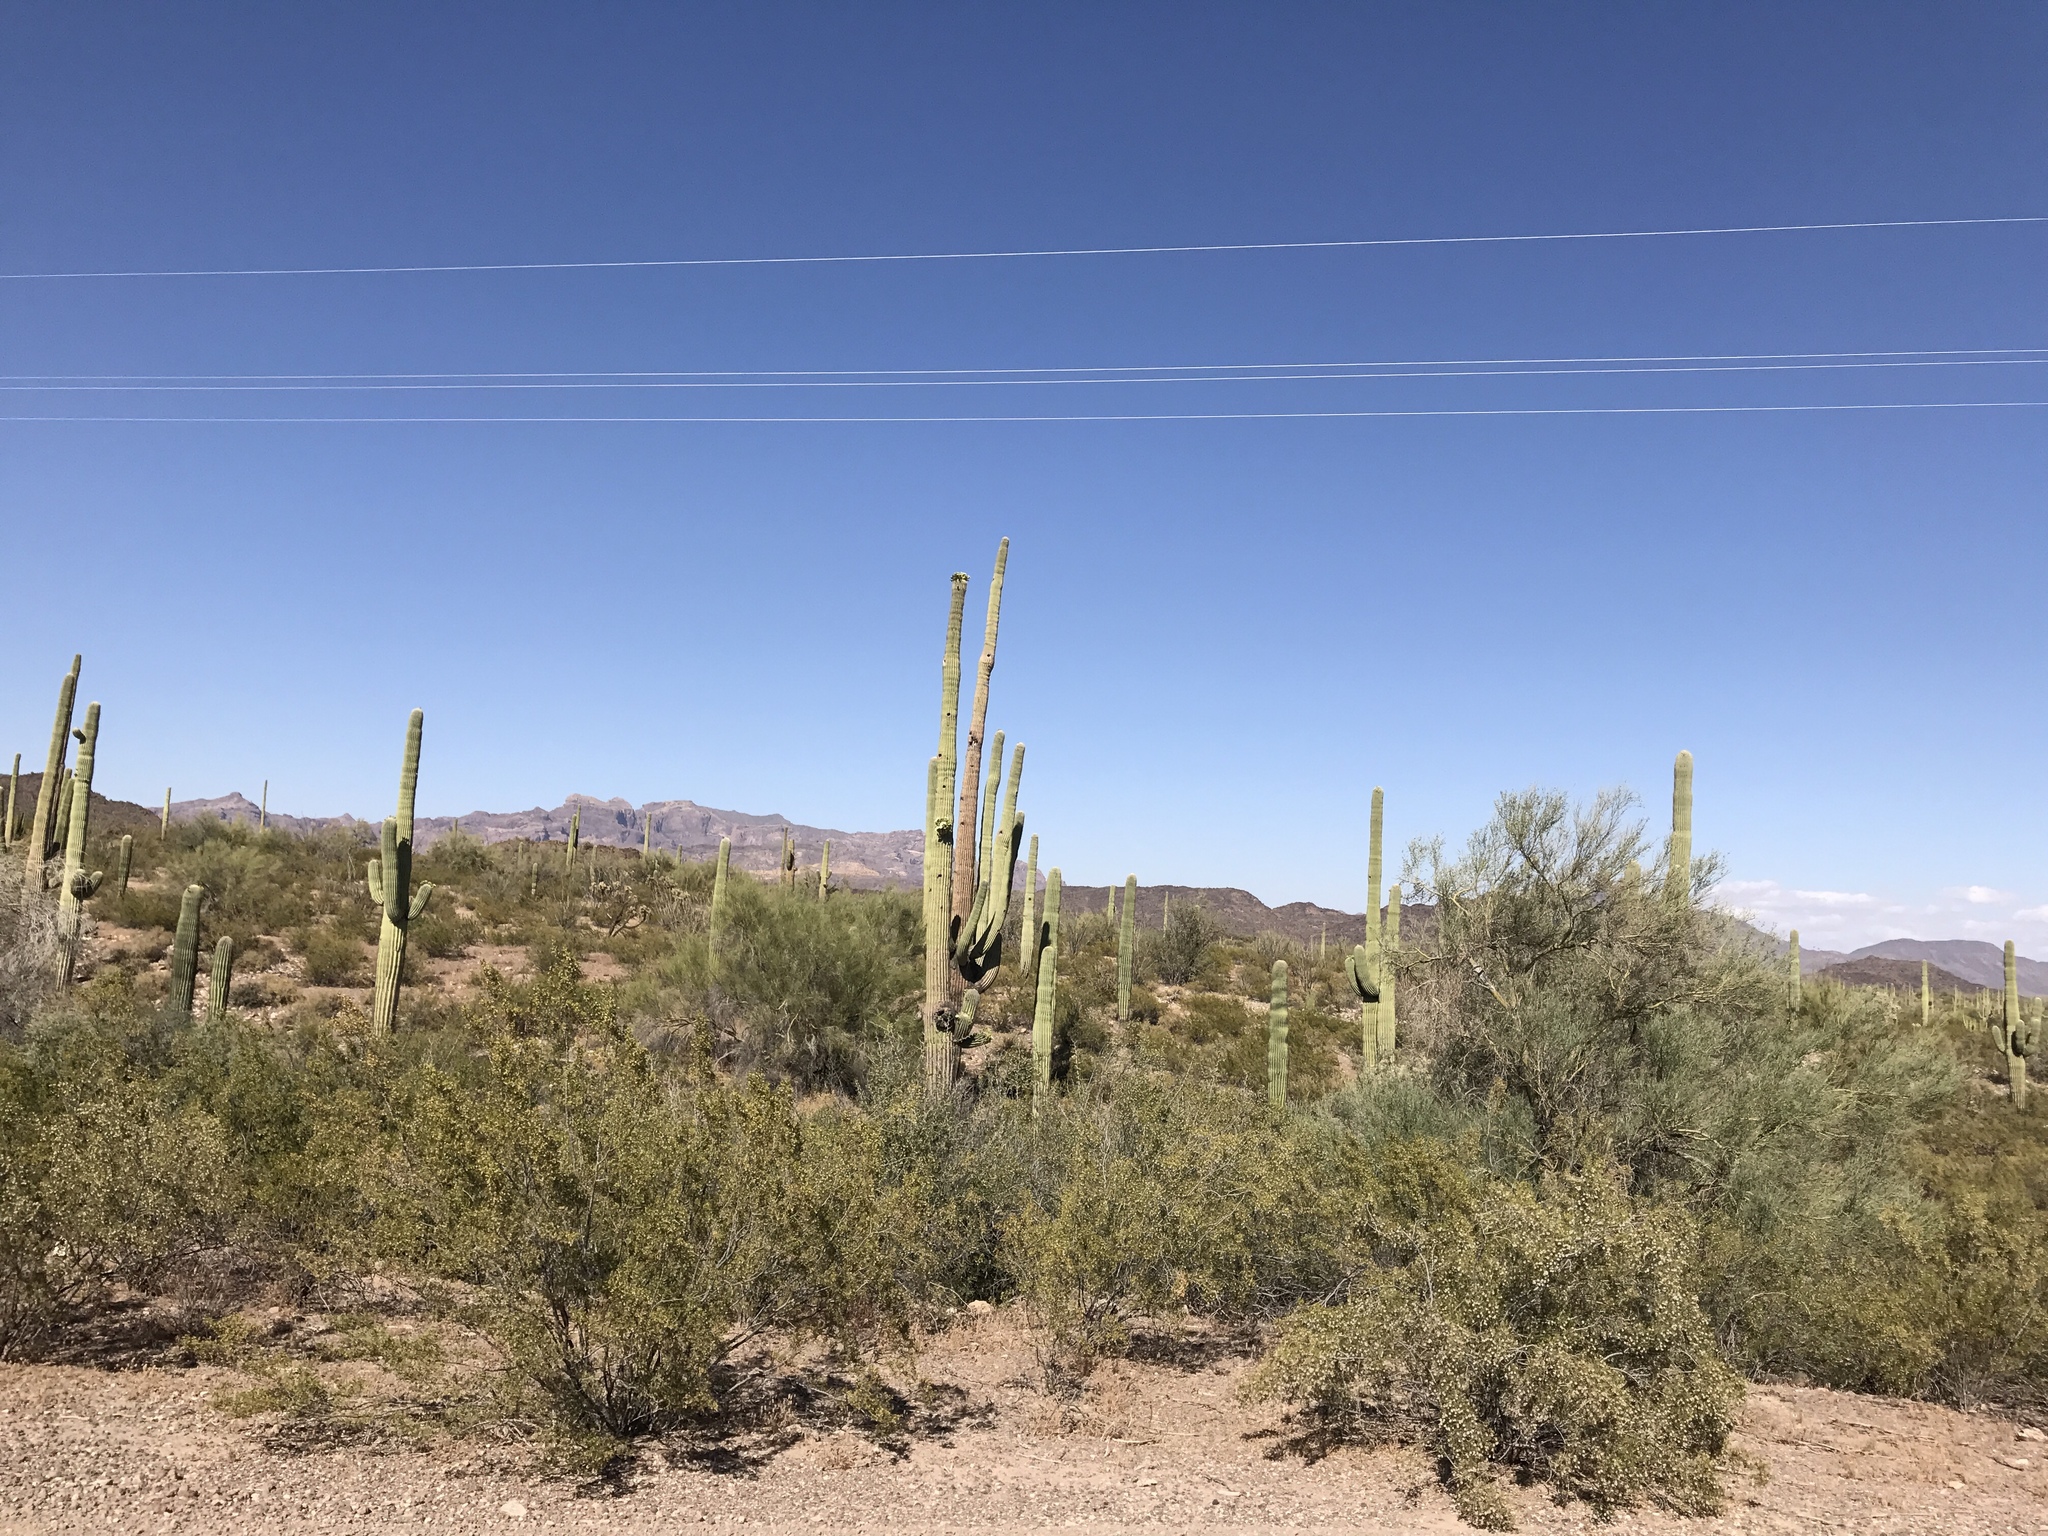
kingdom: Plantae
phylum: Tracheophyta
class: Magnoliopsida
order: Caryophyllales
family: Cactaceae
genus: Carnegiea
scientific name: Carnegiea gigantea
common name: Saguaro
